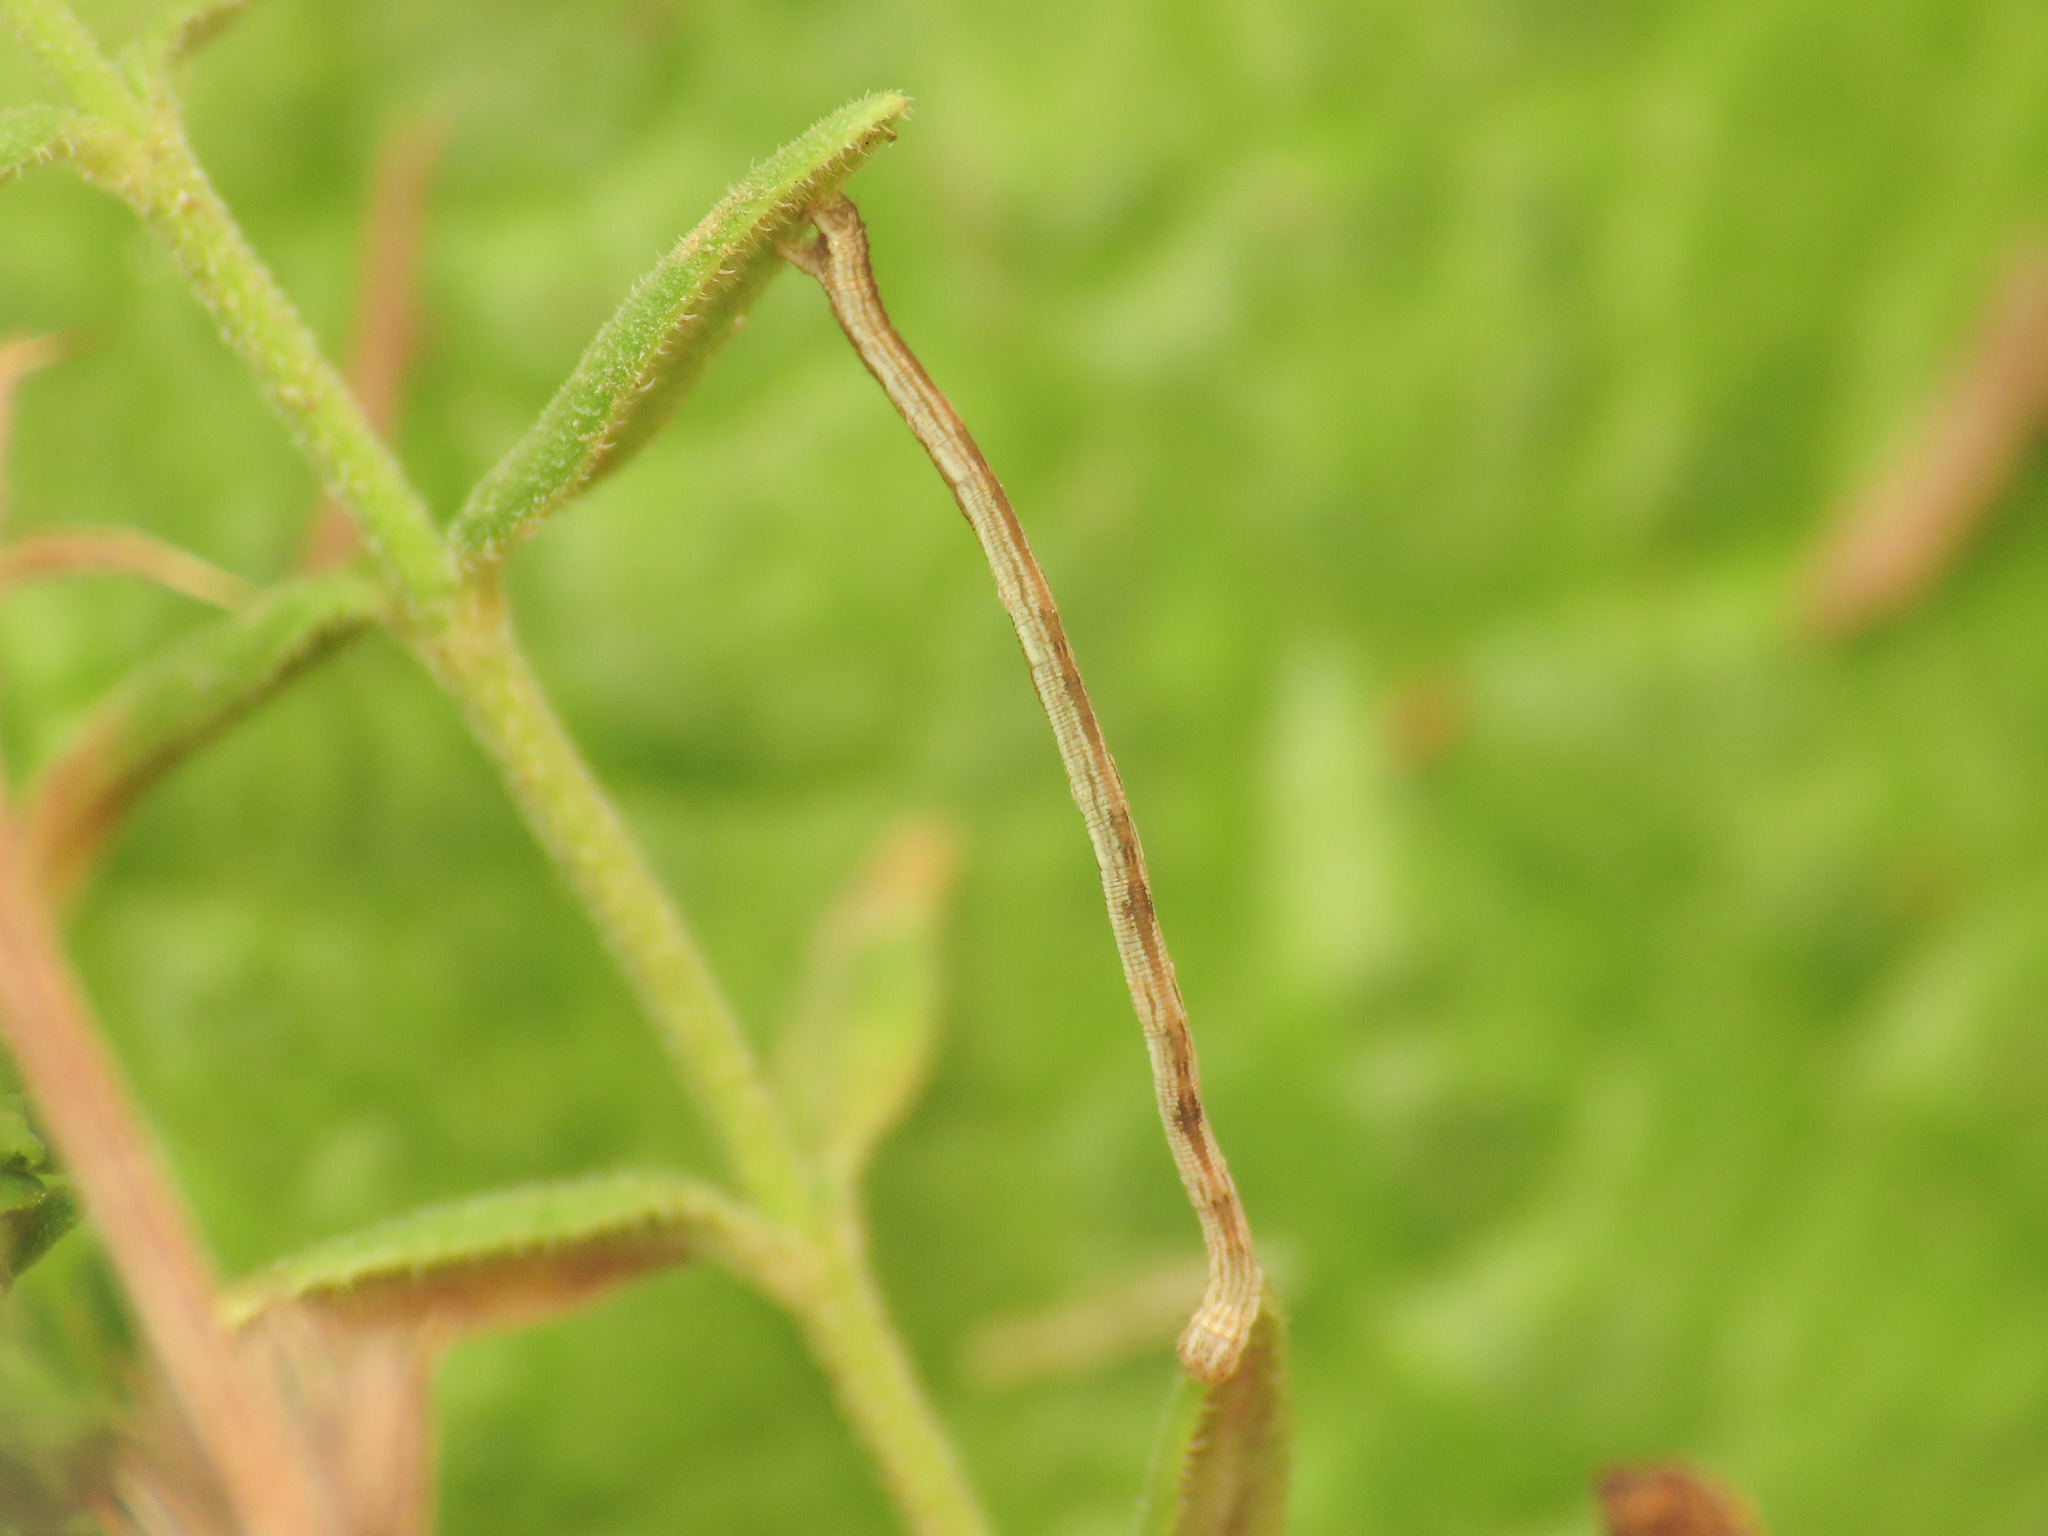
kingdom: Animalia
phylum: Arthropoda
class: Insecta
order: Lepidoptera
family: Geometridae
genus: Scopula
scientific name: Scopula imitaria
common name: Small blood-vein
